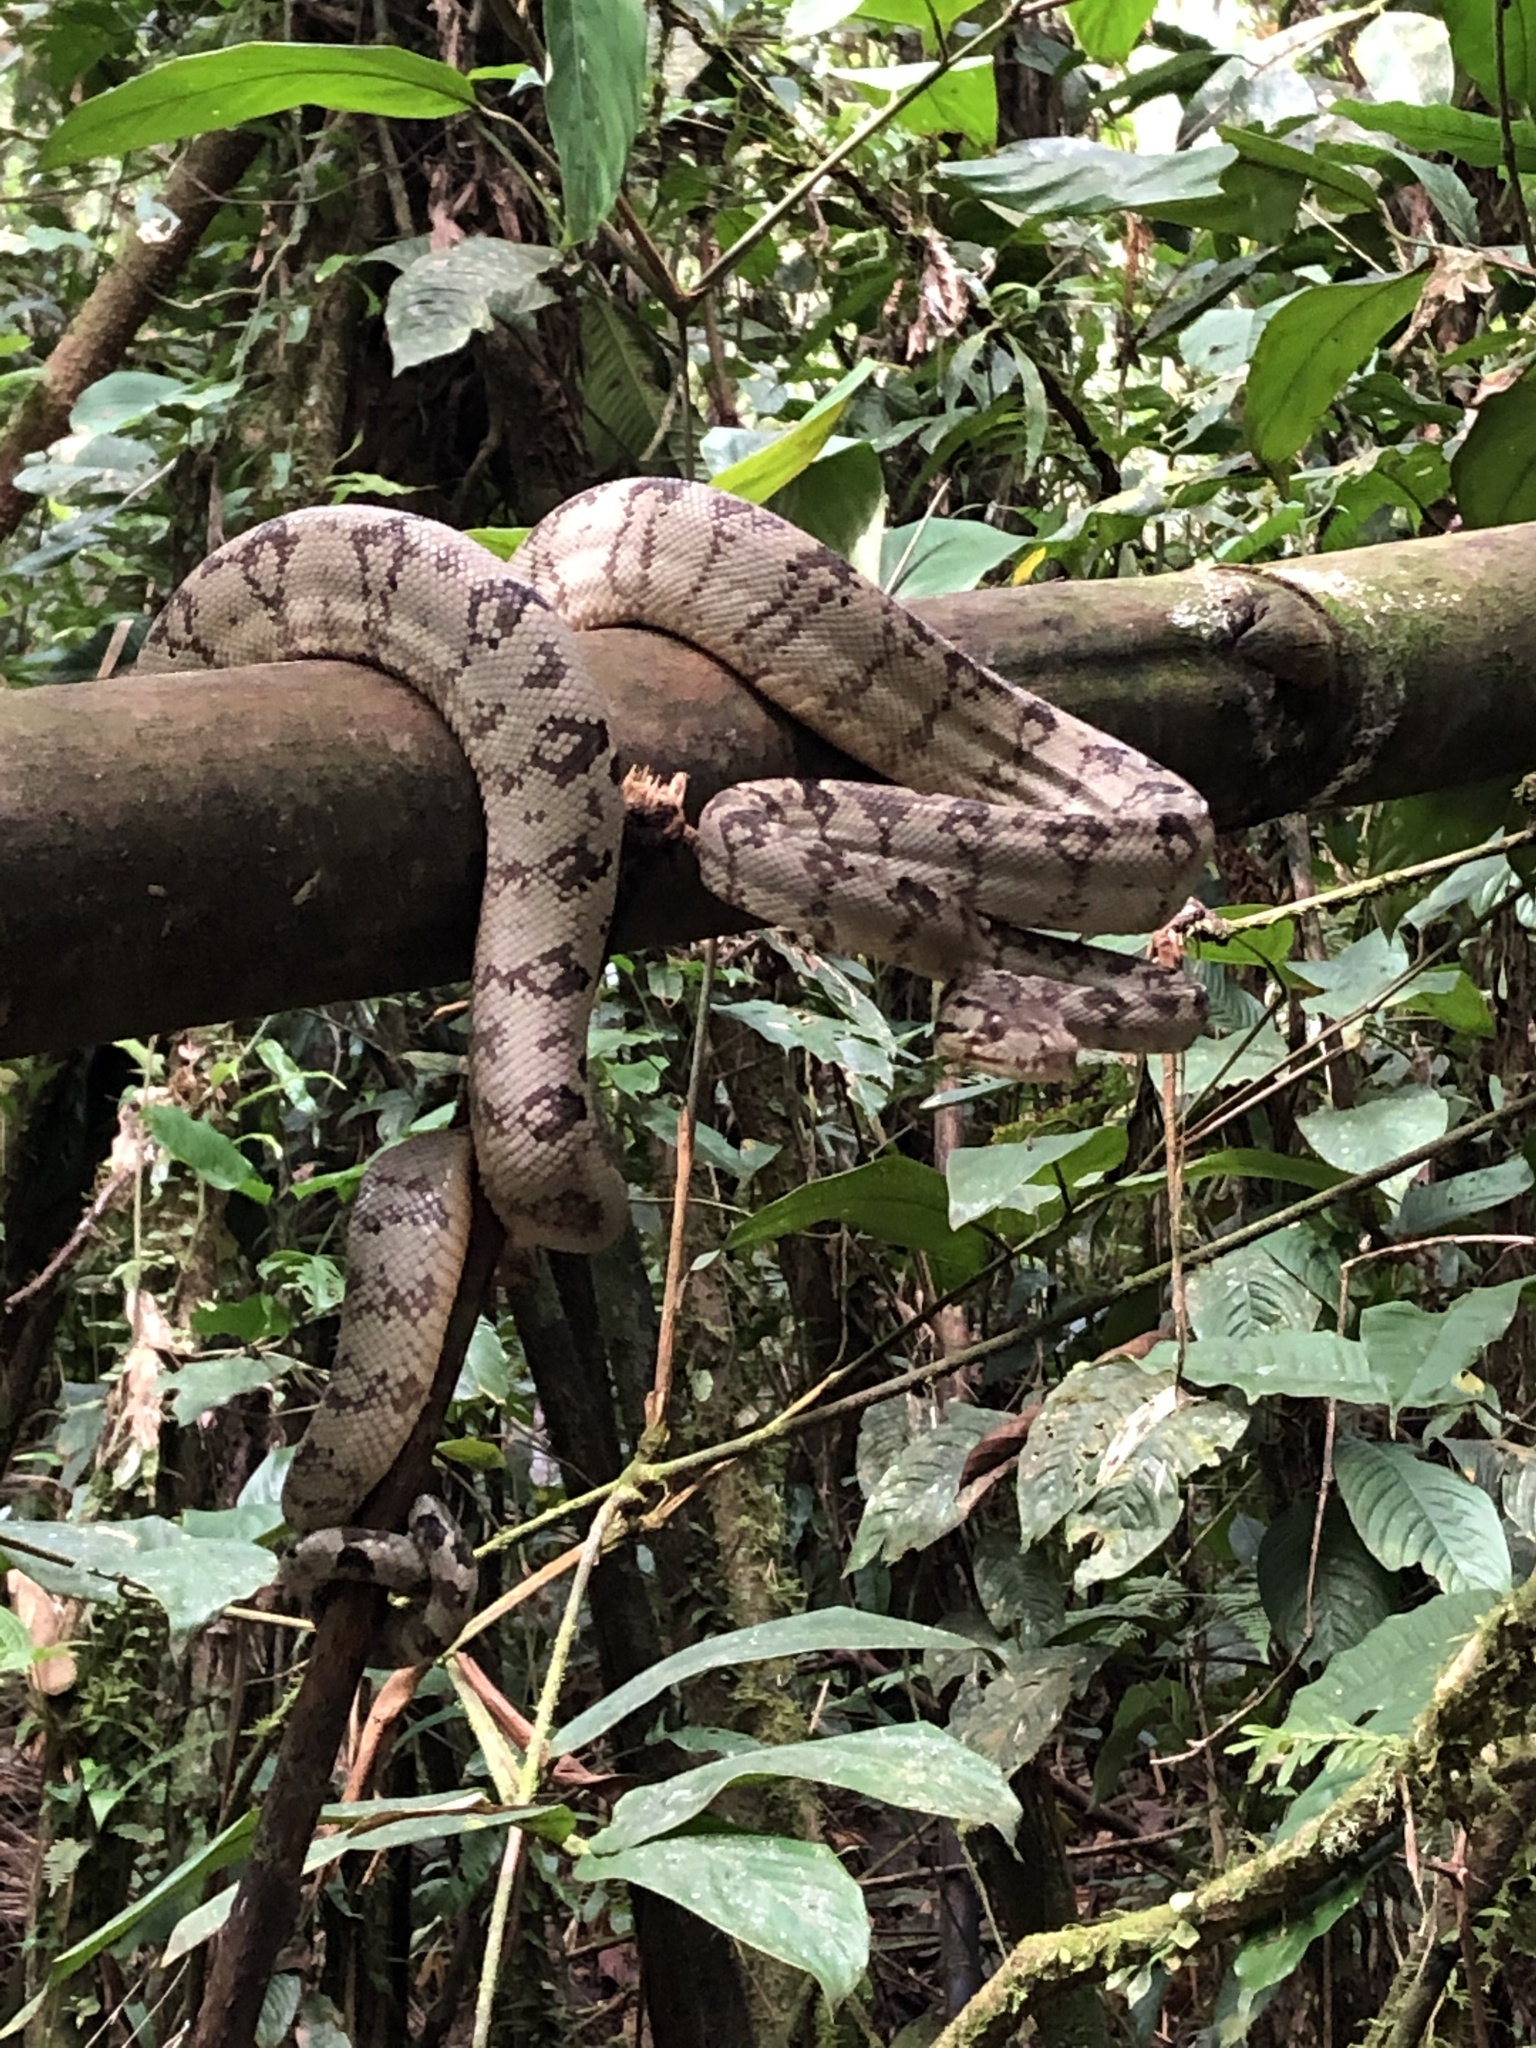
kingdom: Animalia
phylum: Chordata
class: Squamata
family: Boidae
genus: Corallus
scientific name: Corallus hortulana
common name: Garden tree boa
